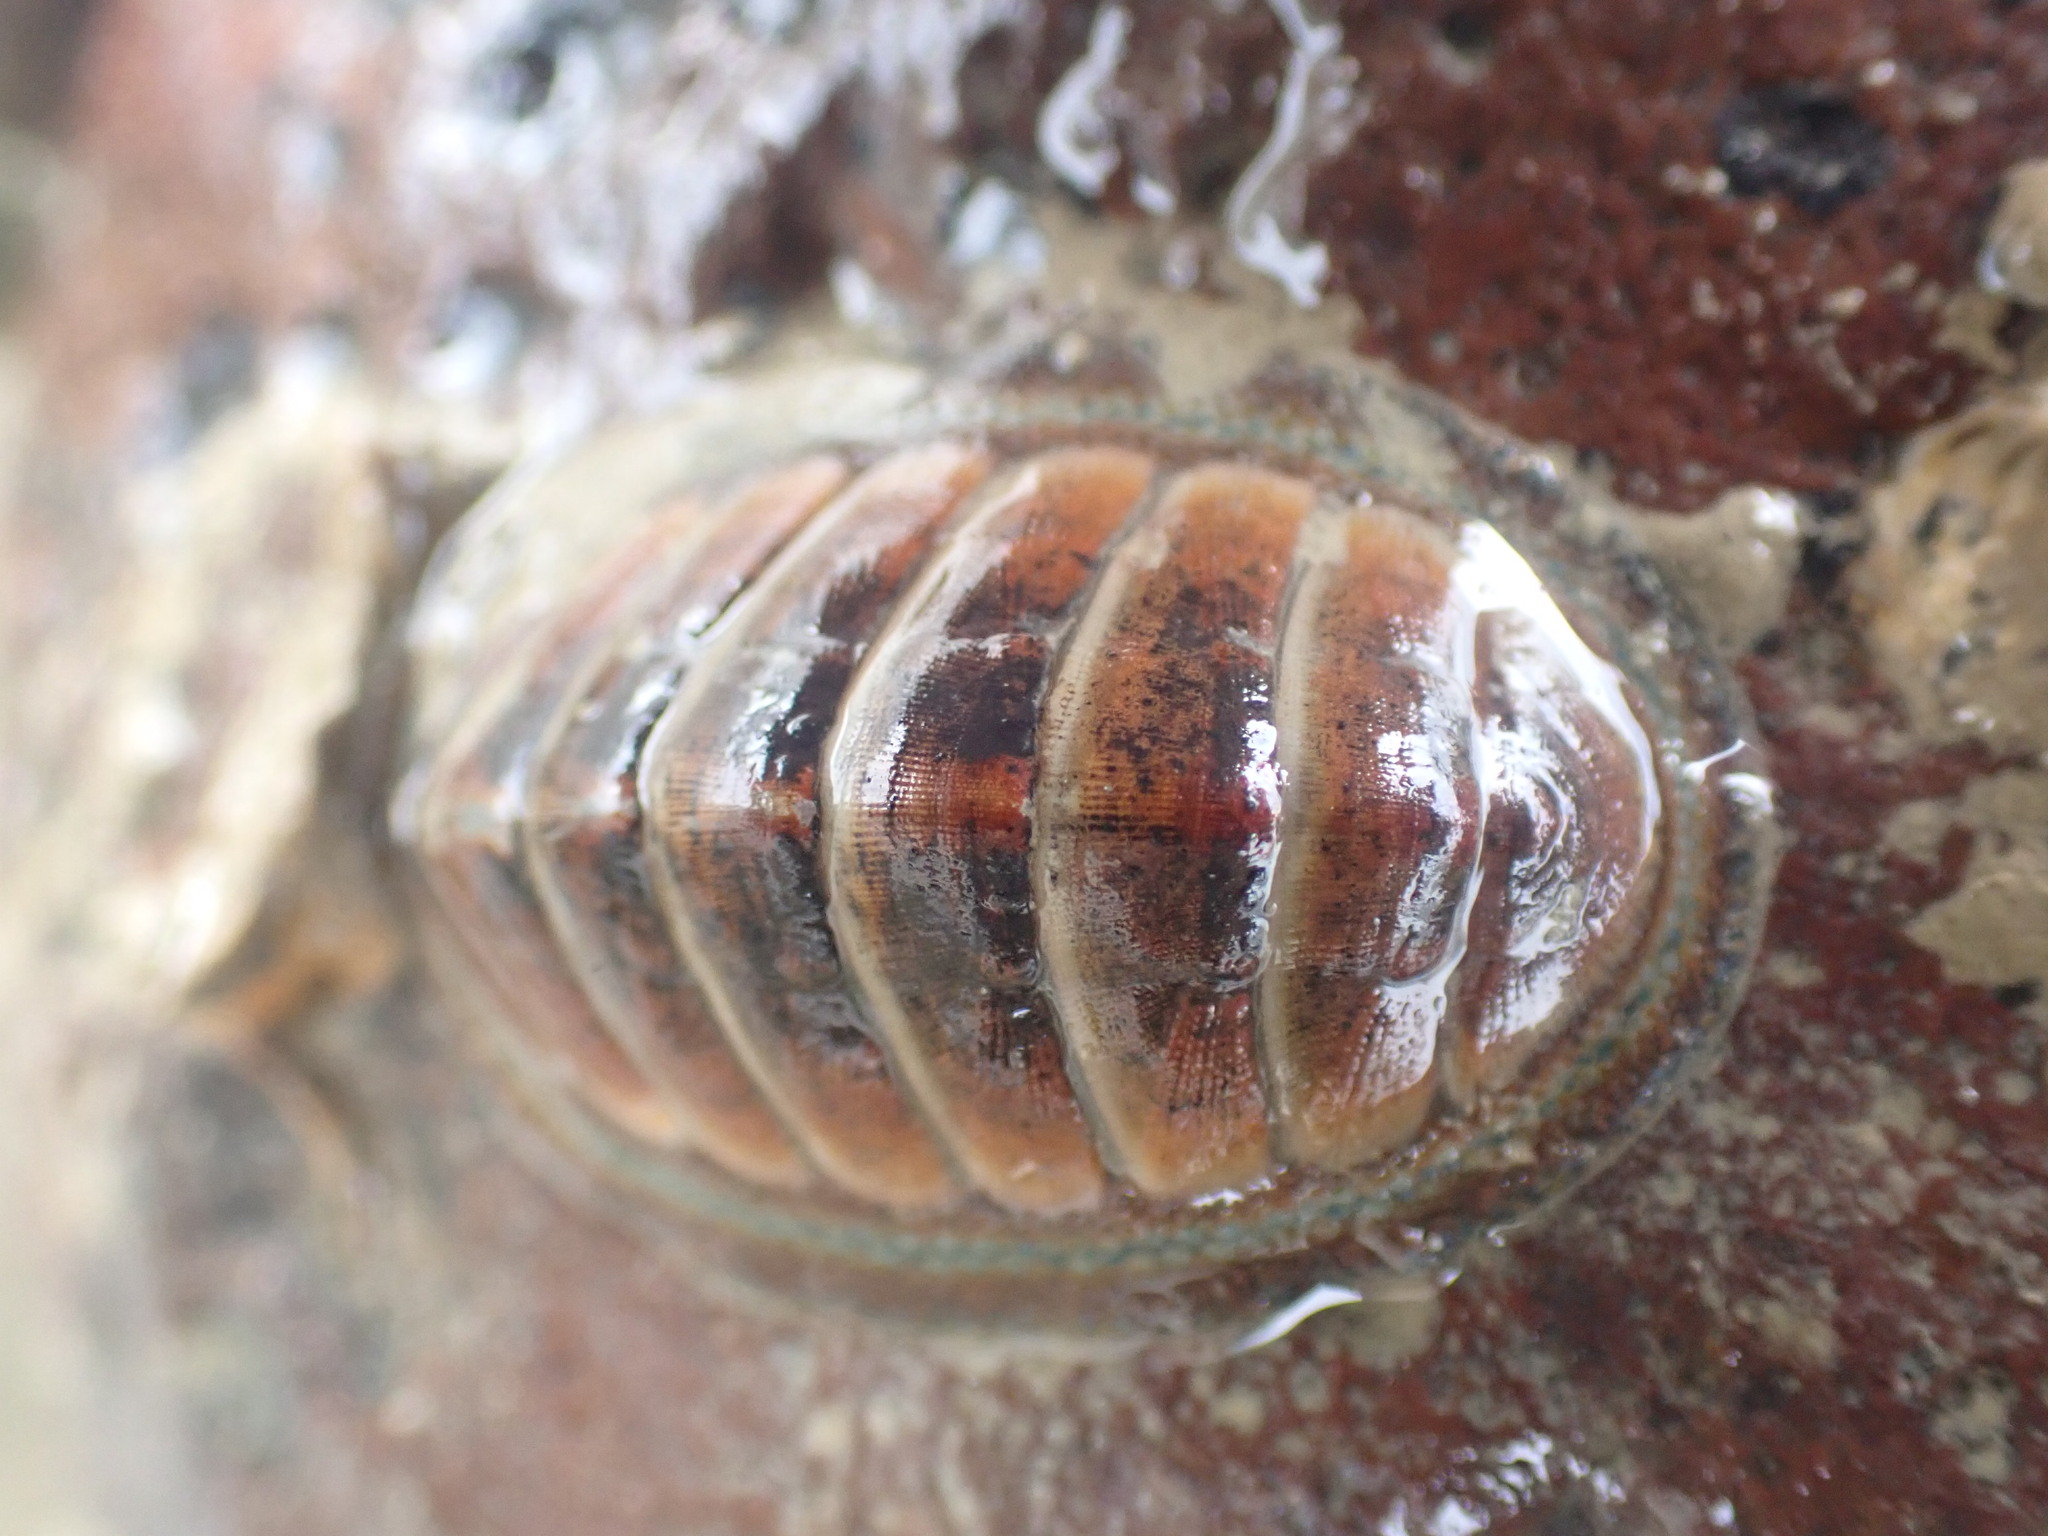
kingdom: Animalia
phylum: Mollusca
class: Polyplacophora
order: Chitonida
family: Chitonidae
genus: Chiton
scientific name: Chiton glaucus
